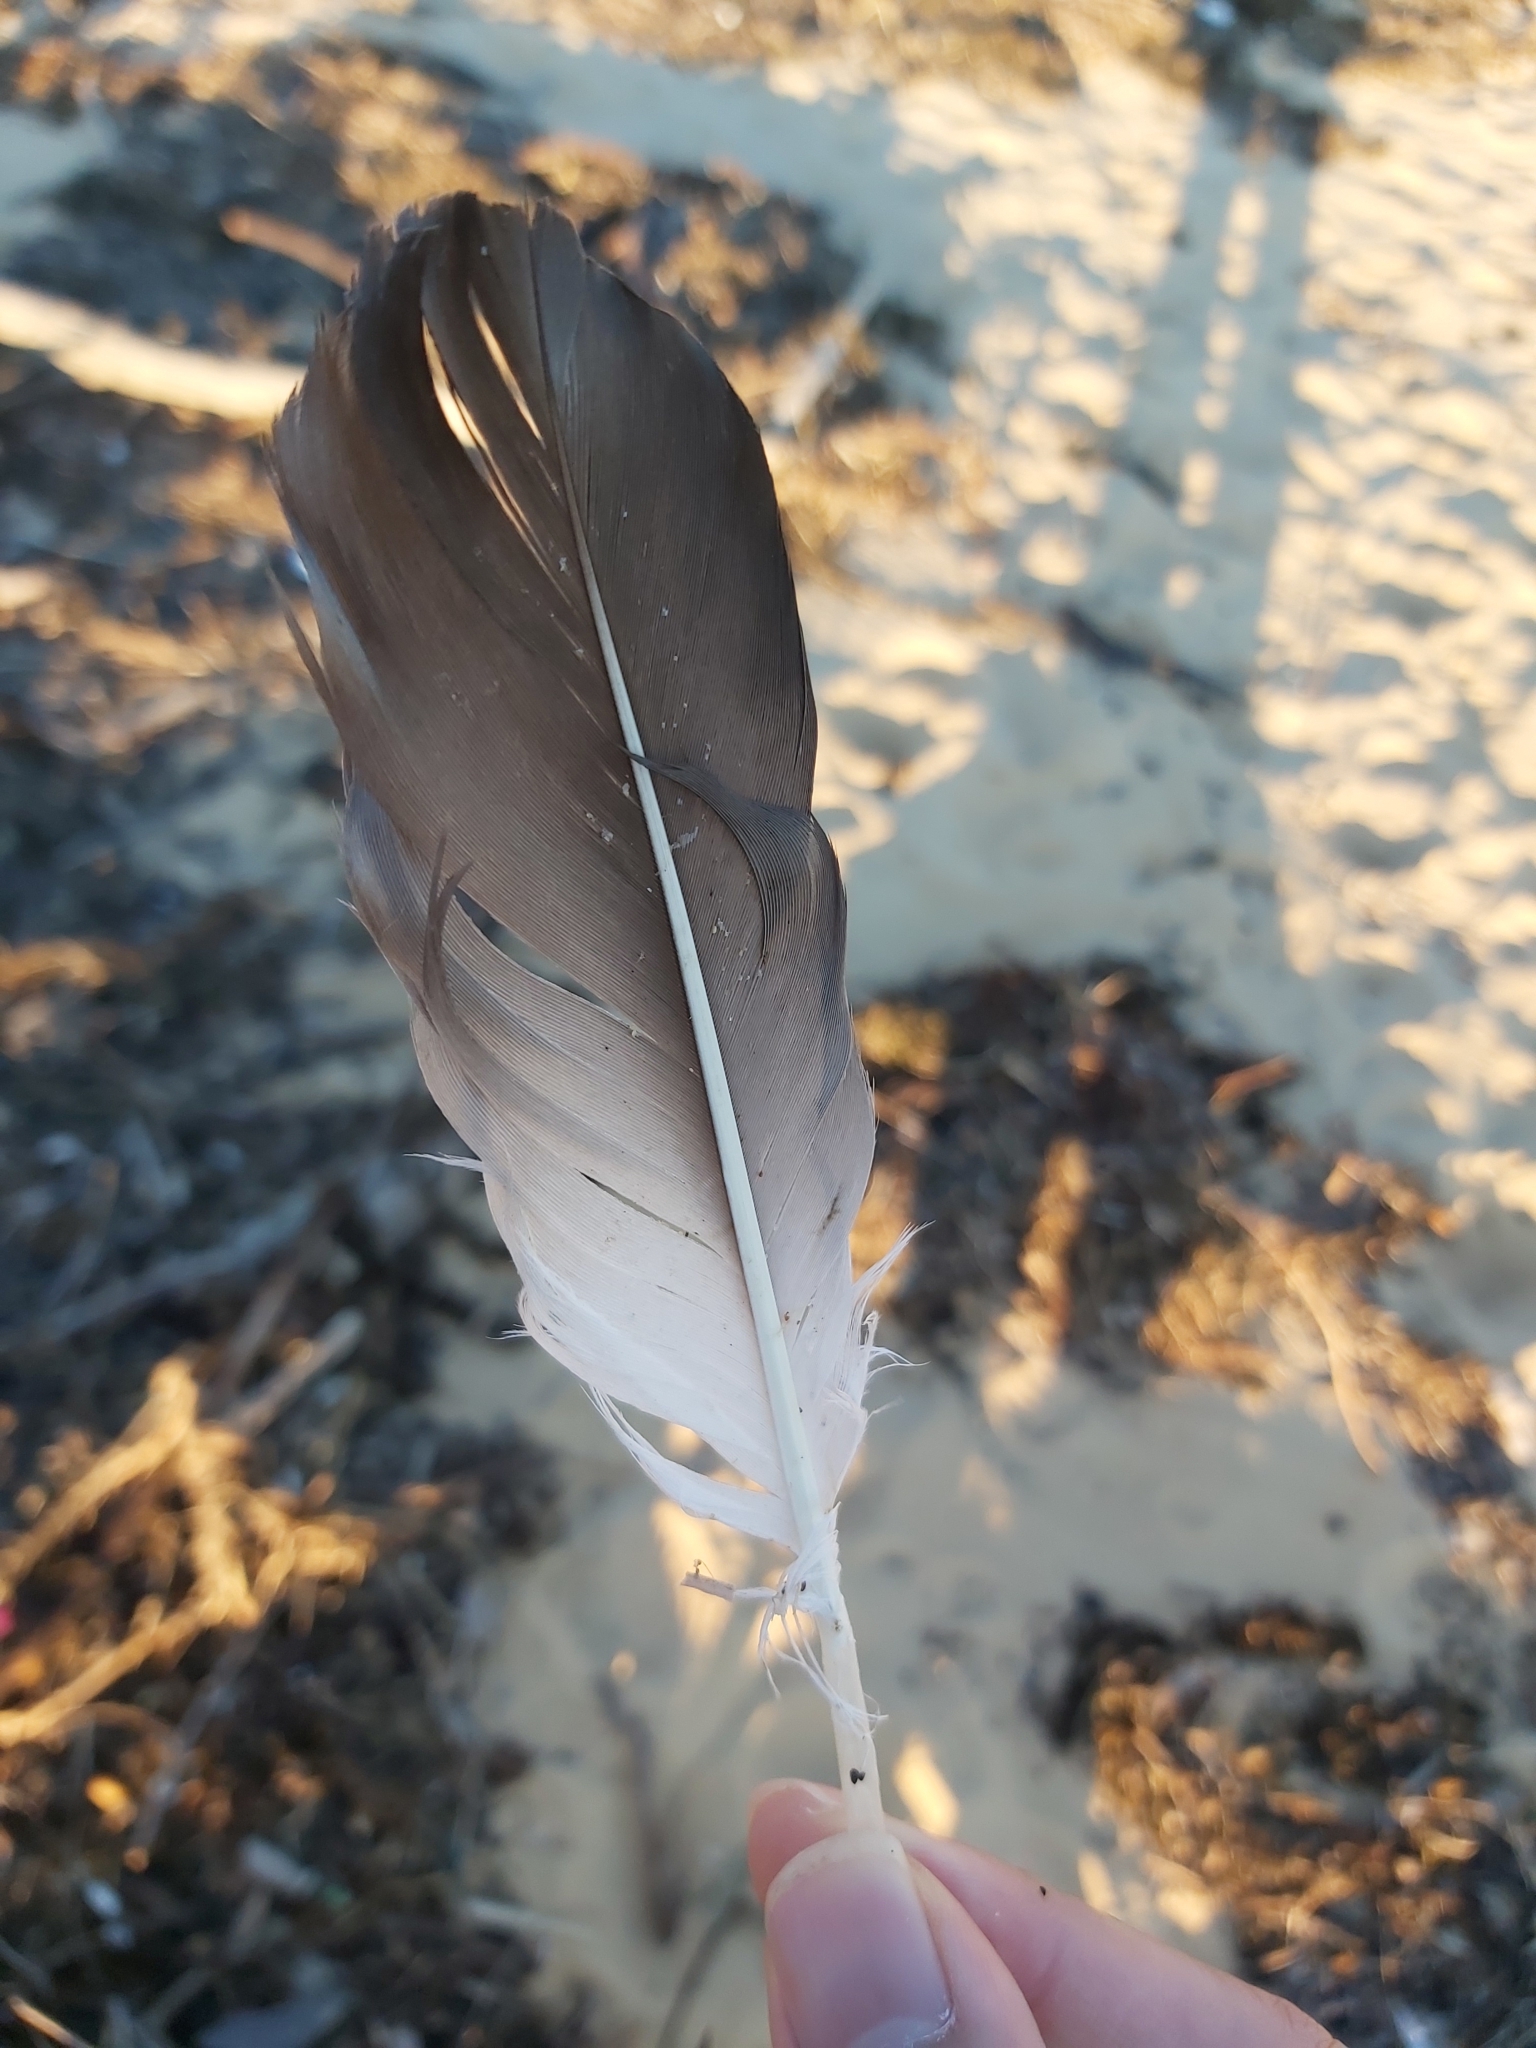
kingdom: Animalia
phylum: Chordata
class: Aves
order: Suliformes
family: Sulidae
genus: Morus
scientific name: Morus serrator
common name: Australasian gannet
